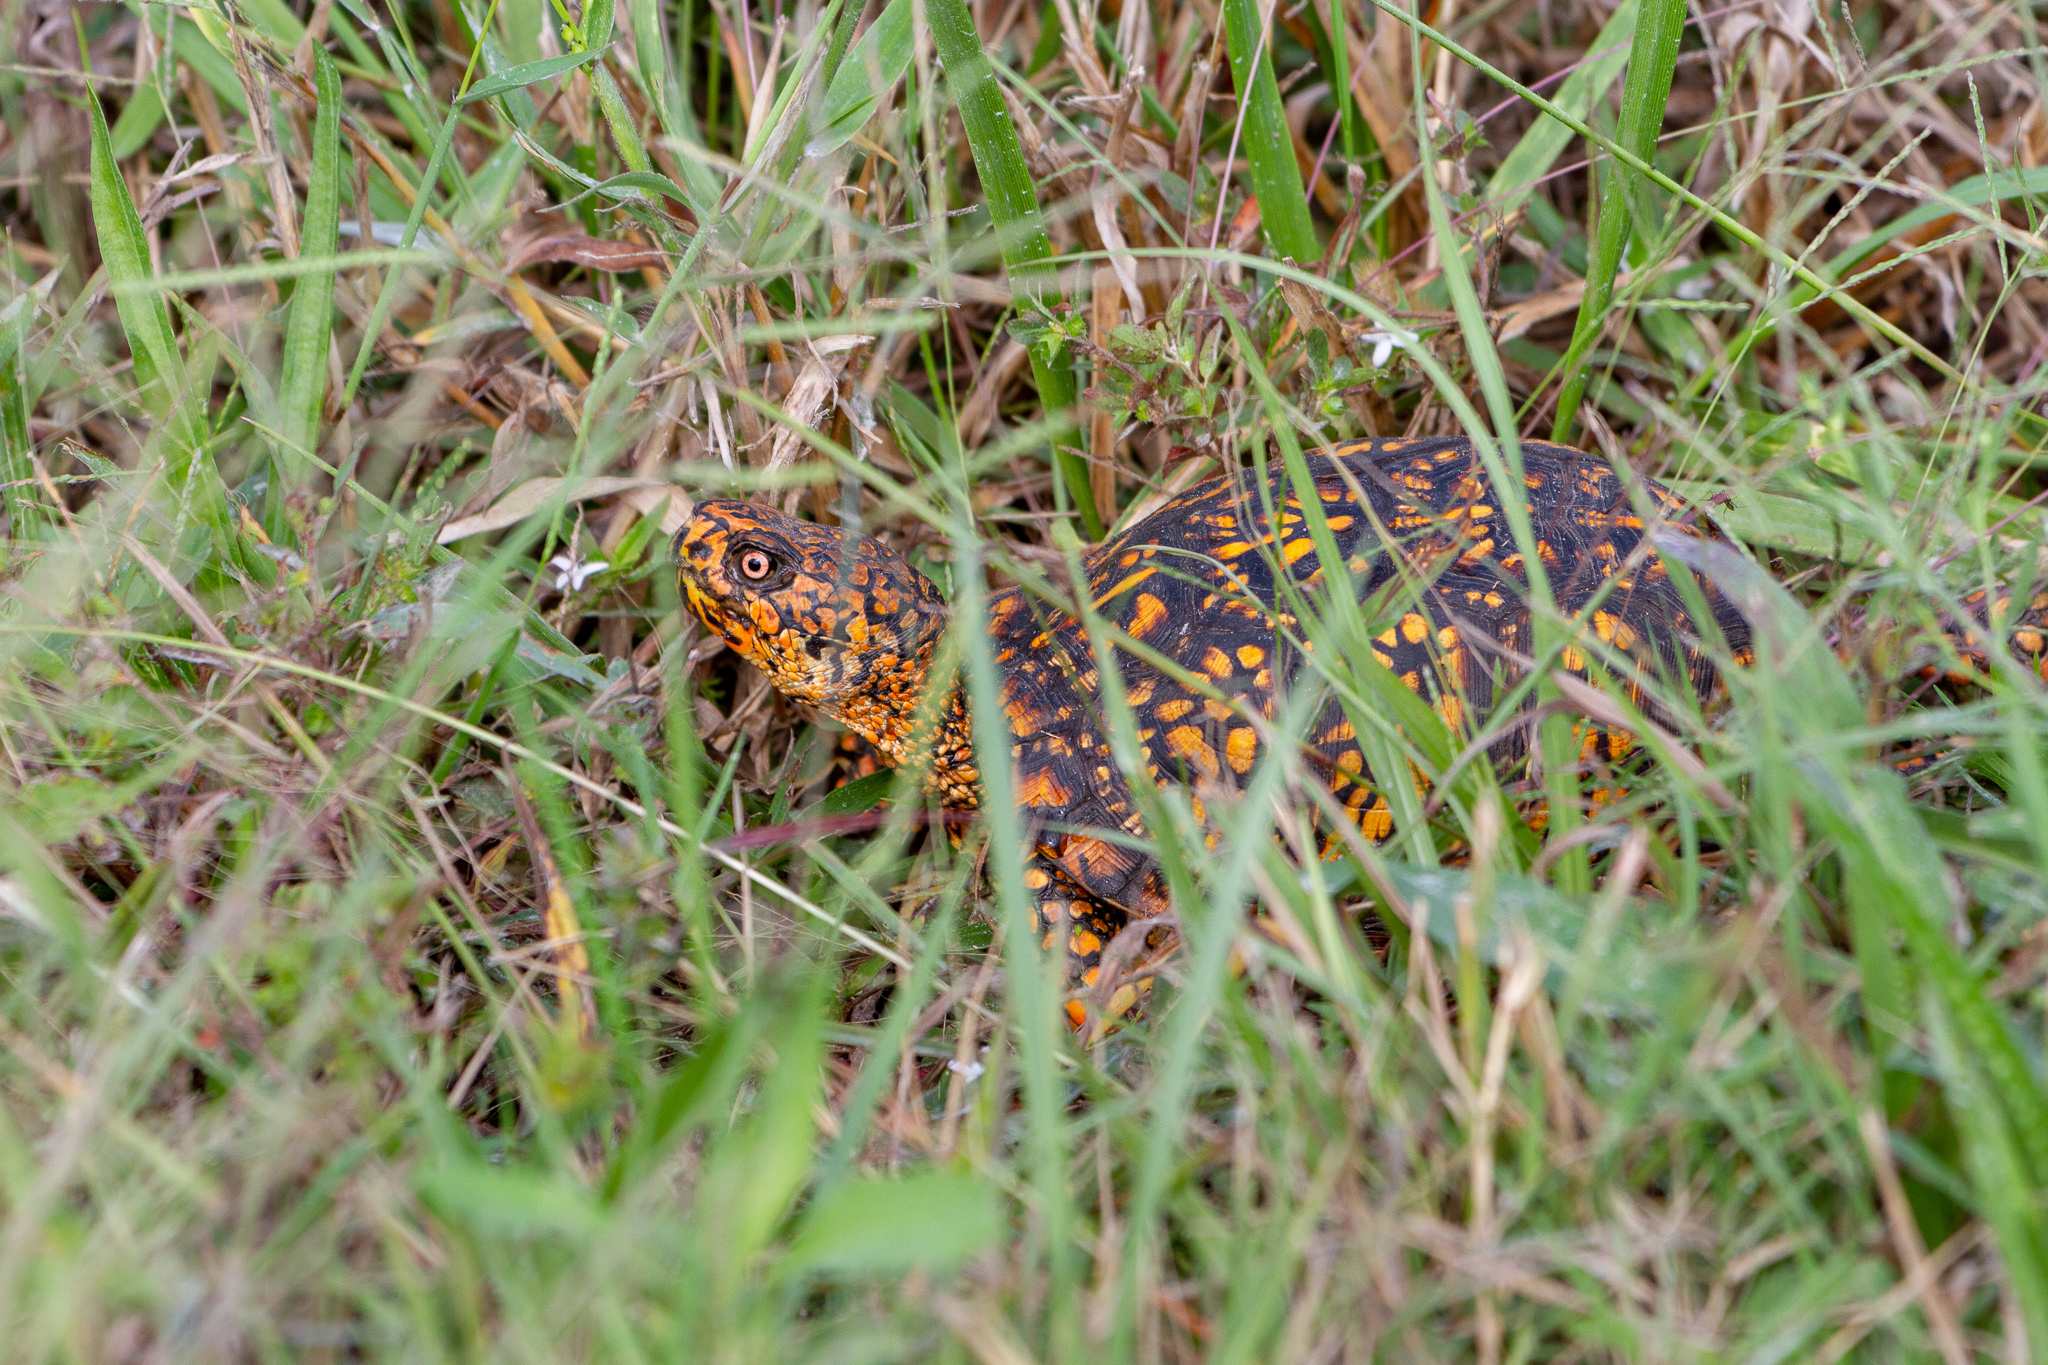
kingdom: Animalia
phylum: Chordata
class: Testudines
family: Emydidae
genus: Terrapene
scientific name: Terrapene carolina
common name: Common box turtle
